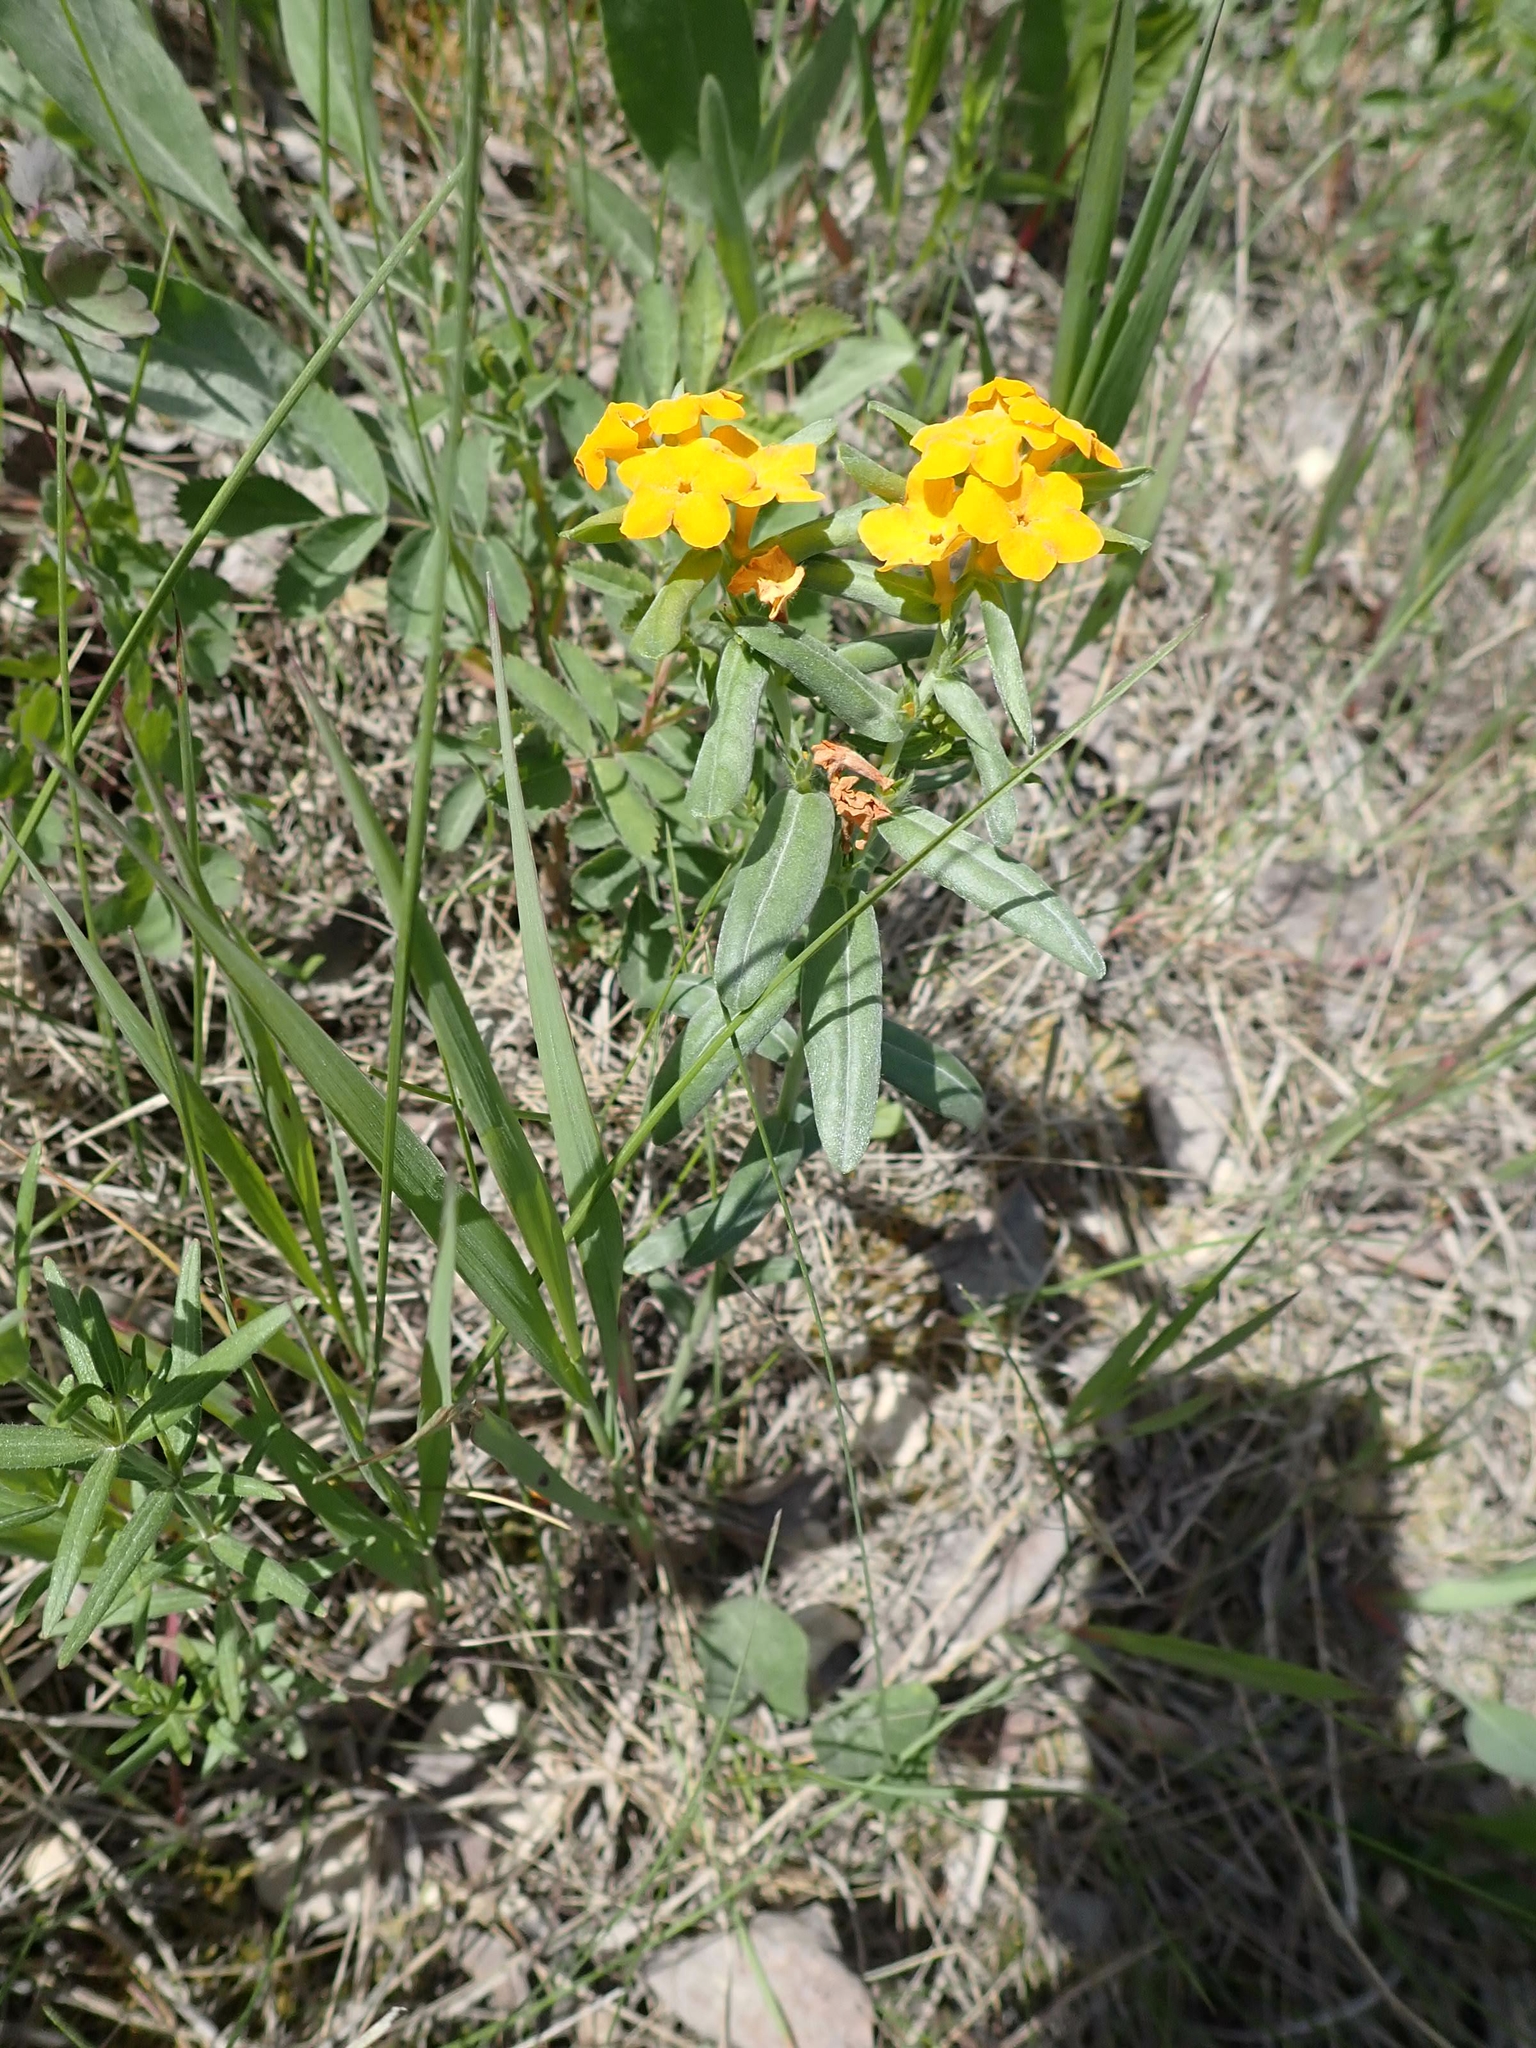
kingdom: Plantae
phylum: Tracheophyta
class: Magnoliopsida
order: Boraginales
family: Boraginaceae
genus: Lithospermum
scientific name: Lithospermum canescens
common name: Hoary puccoon
